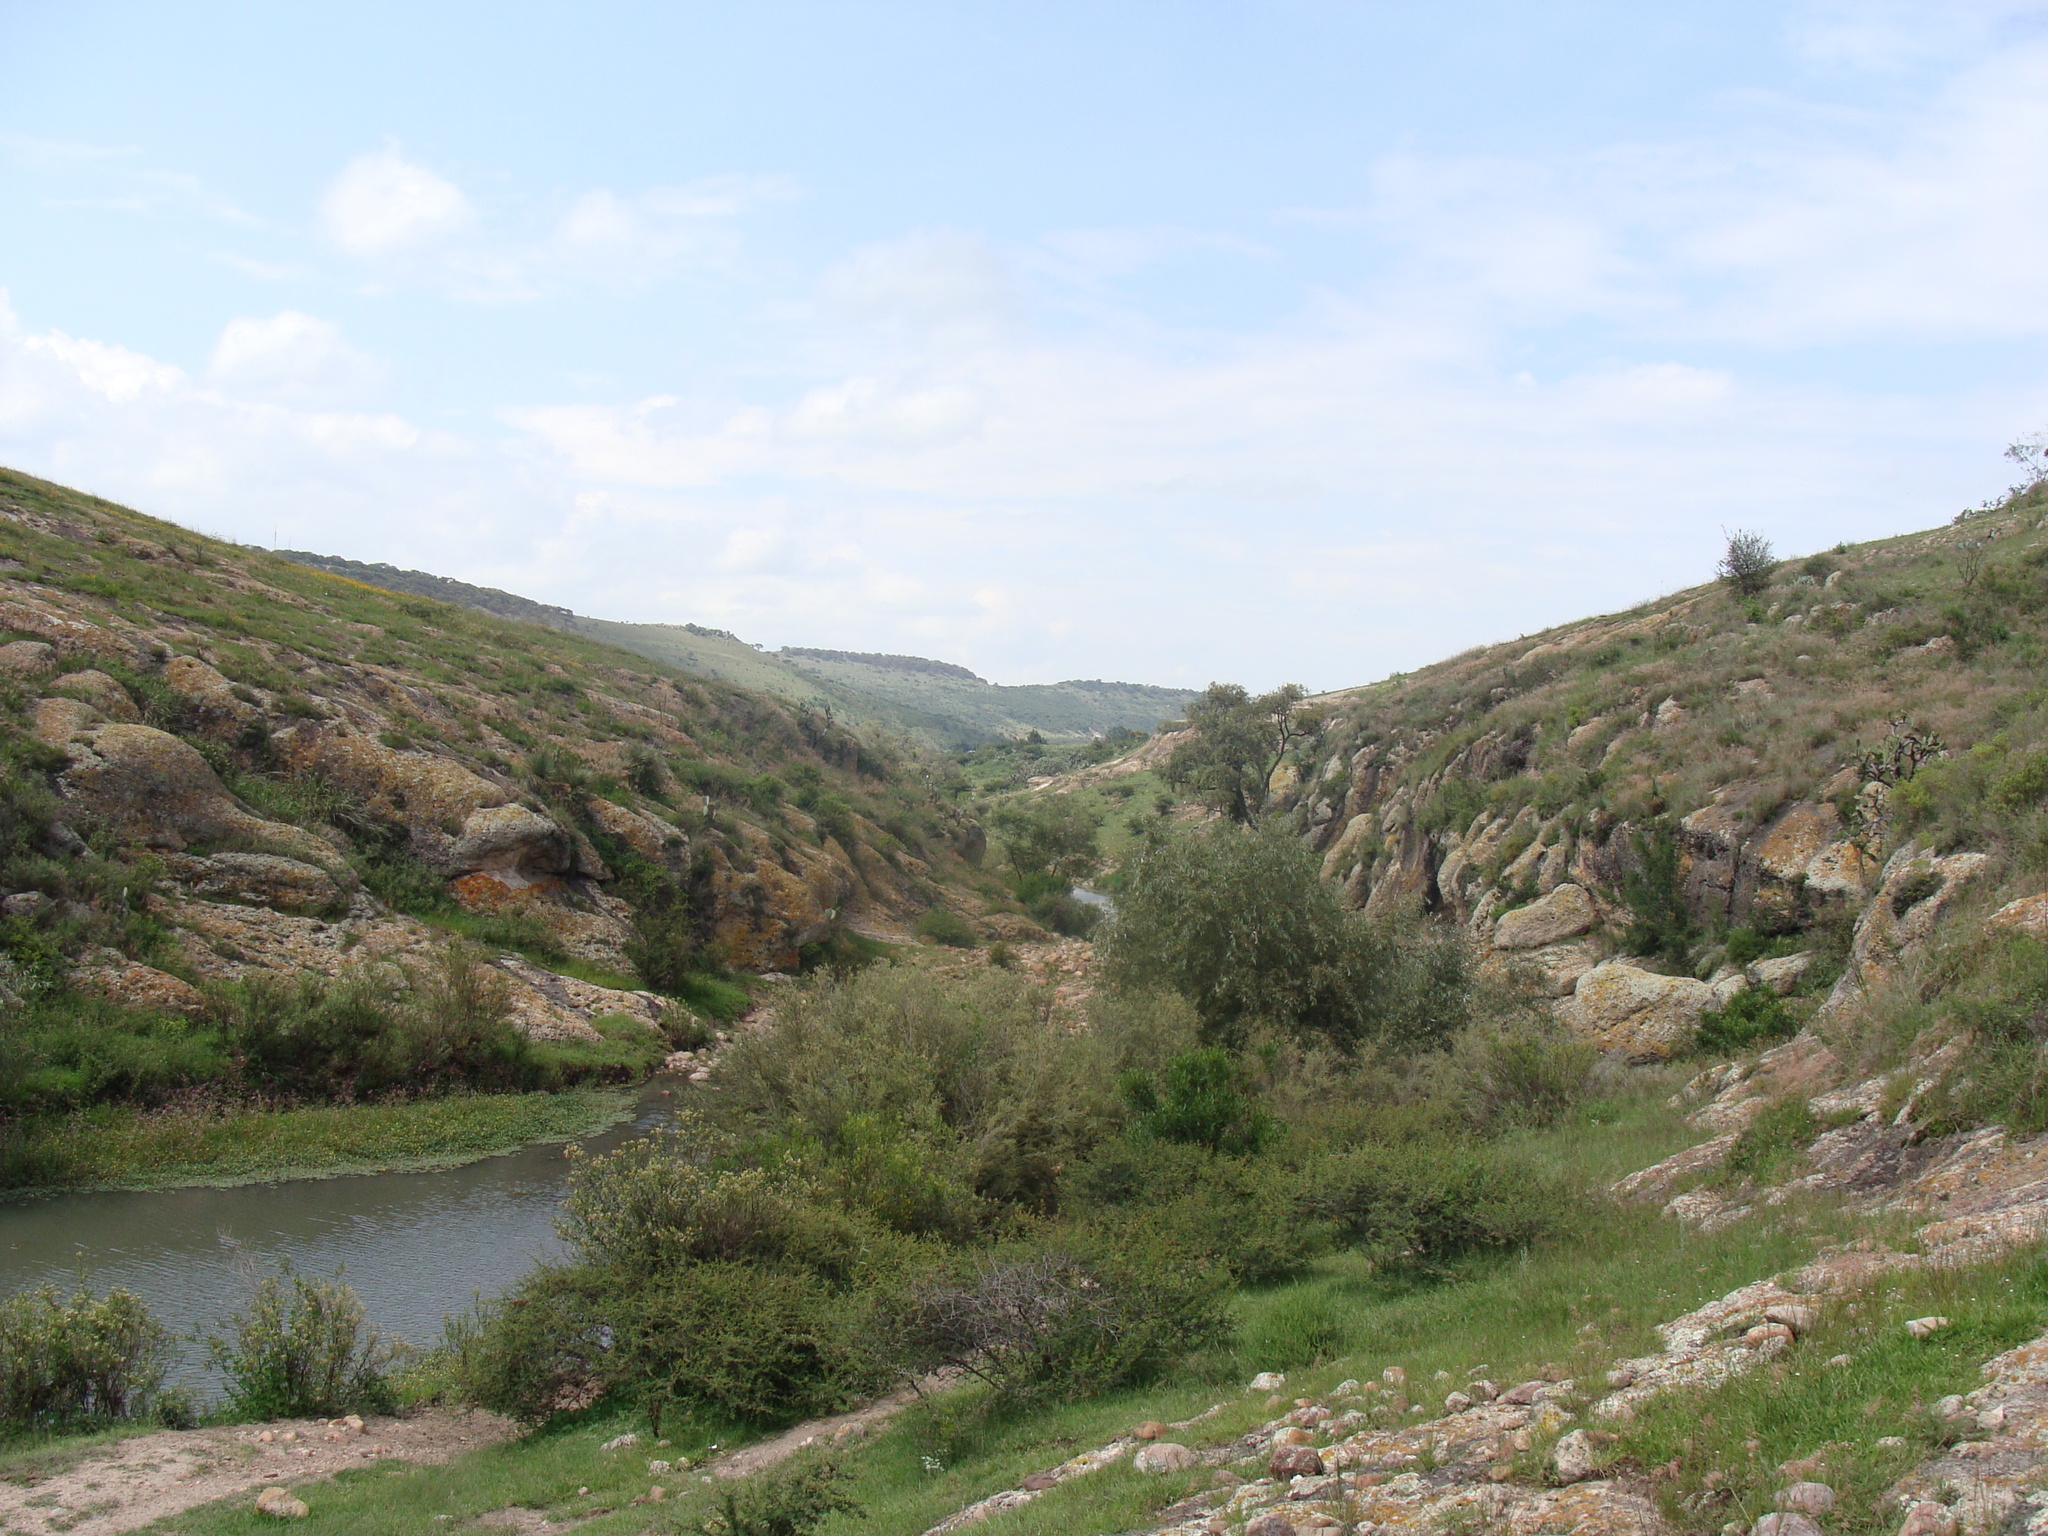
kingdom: Plantae
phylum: Tracheophyta
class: Magnoliopsida
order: Myrtales
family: Onagraceae
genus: Ludwigia
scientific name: Ludwigia peploides
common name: Floating primrose-willow
